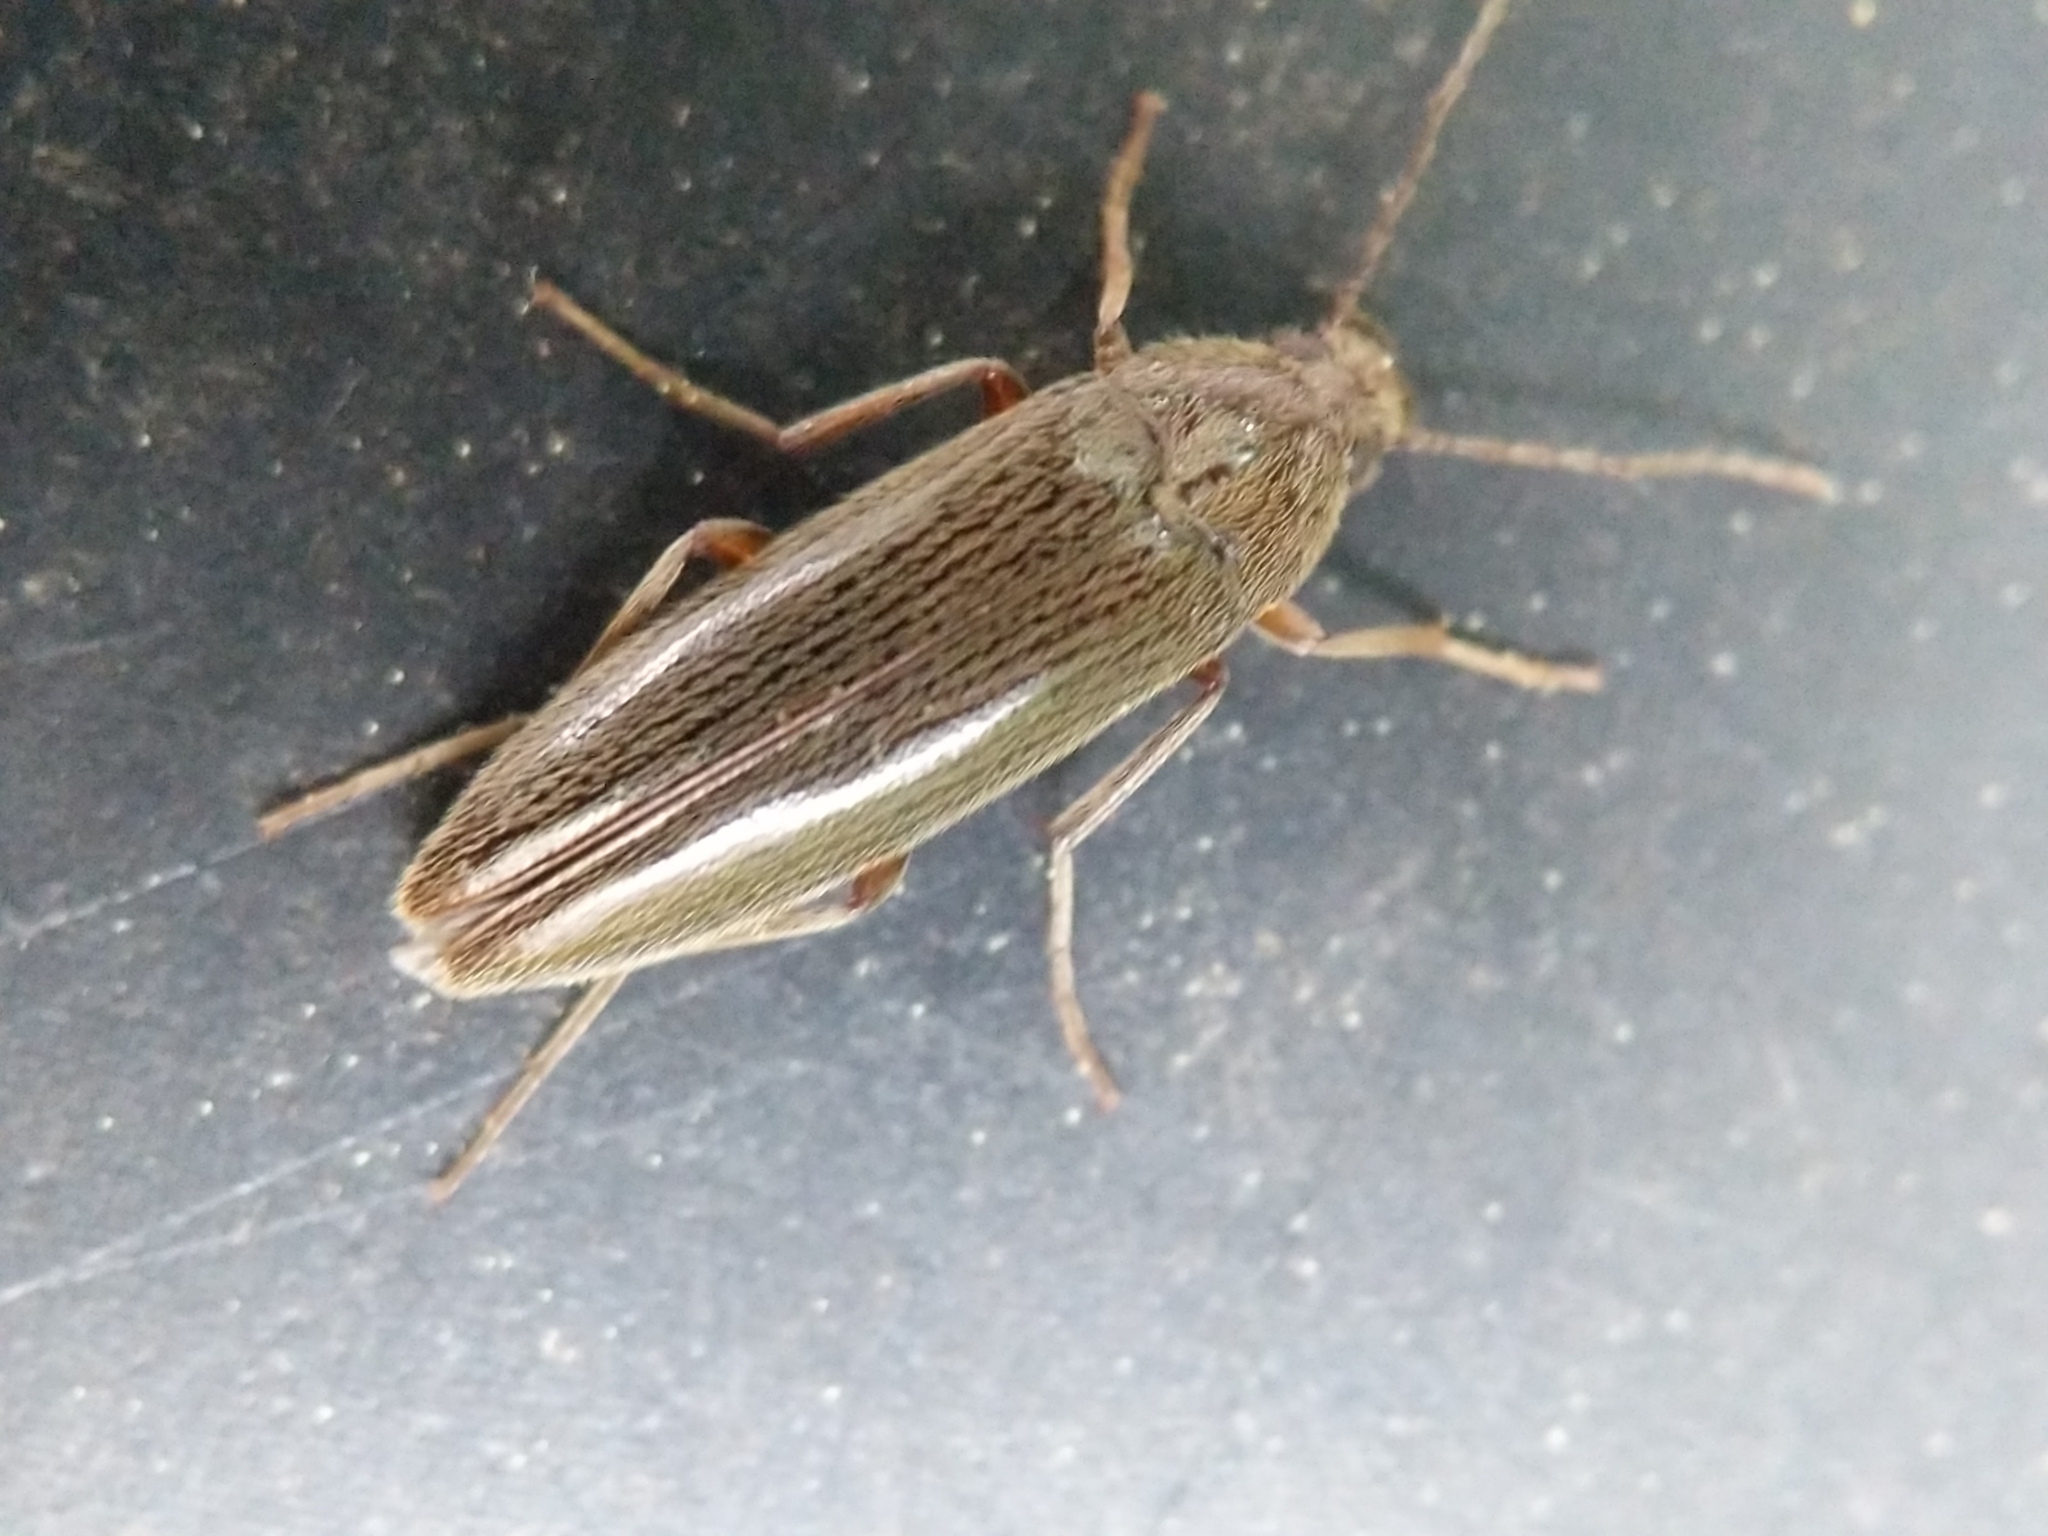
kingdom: Animalia
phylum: Arthropoda
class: Insecta
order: Coleoptera
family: Synchroidae
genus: Synchroa
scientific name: Synchroa punctata
